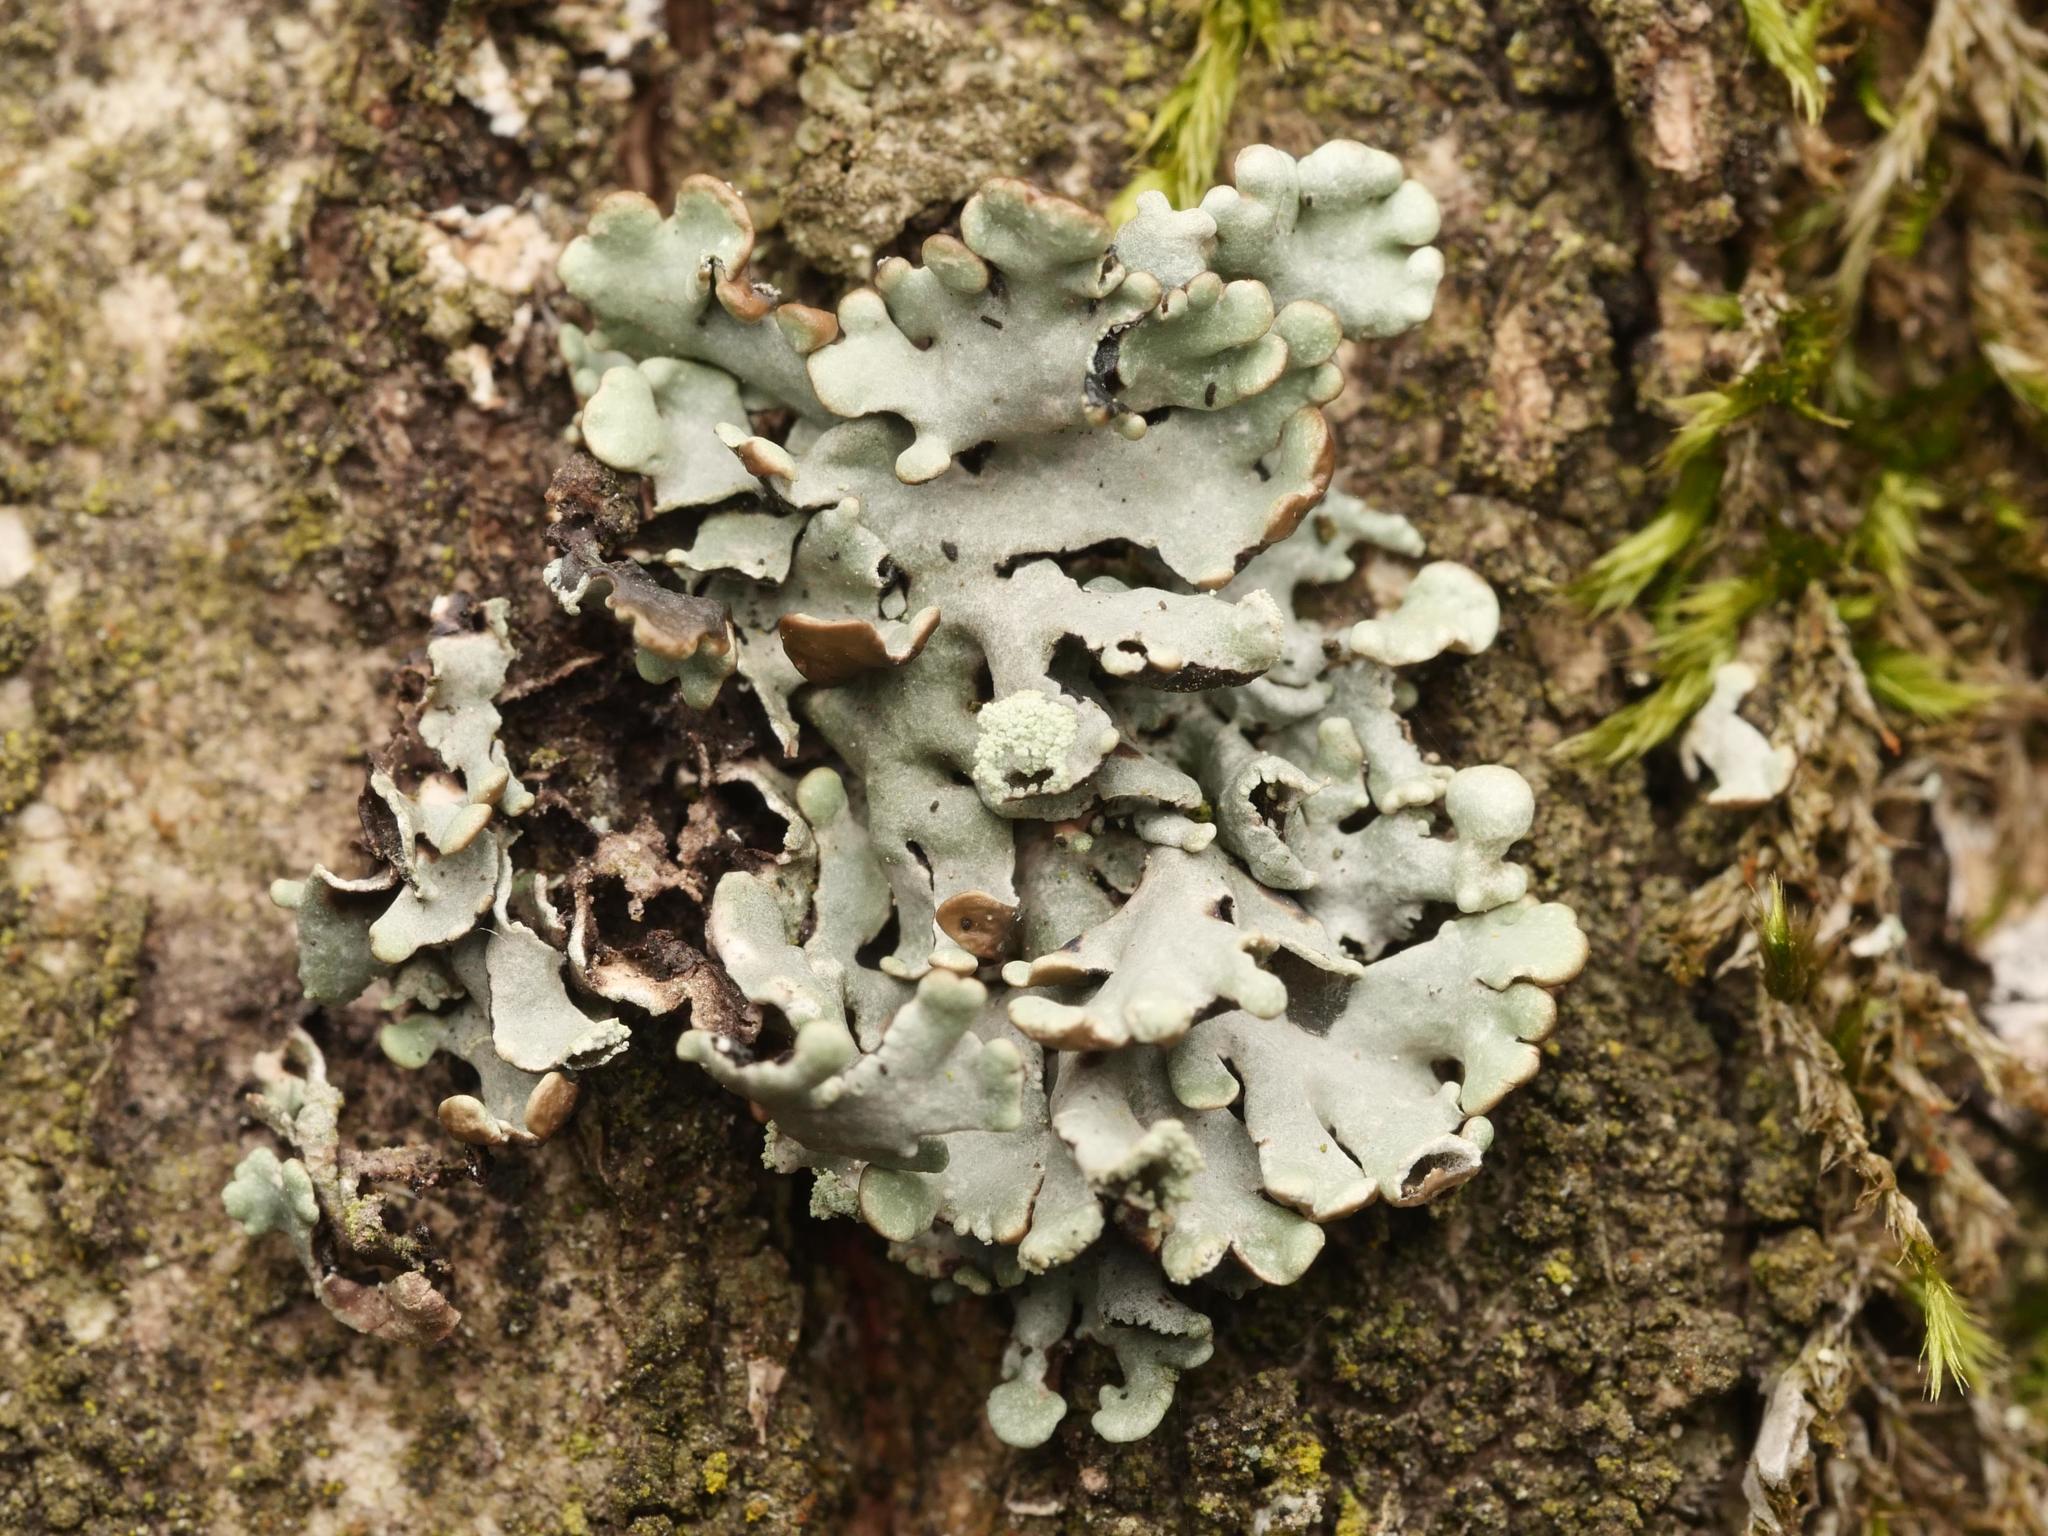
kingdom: Fungi
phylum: Ascomycota
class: Lecanoromycetes
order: Lecanorales
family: Parmeliaceae
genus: Hypogymnia
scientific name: Hypogymnia physodes
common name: Dark crottle
